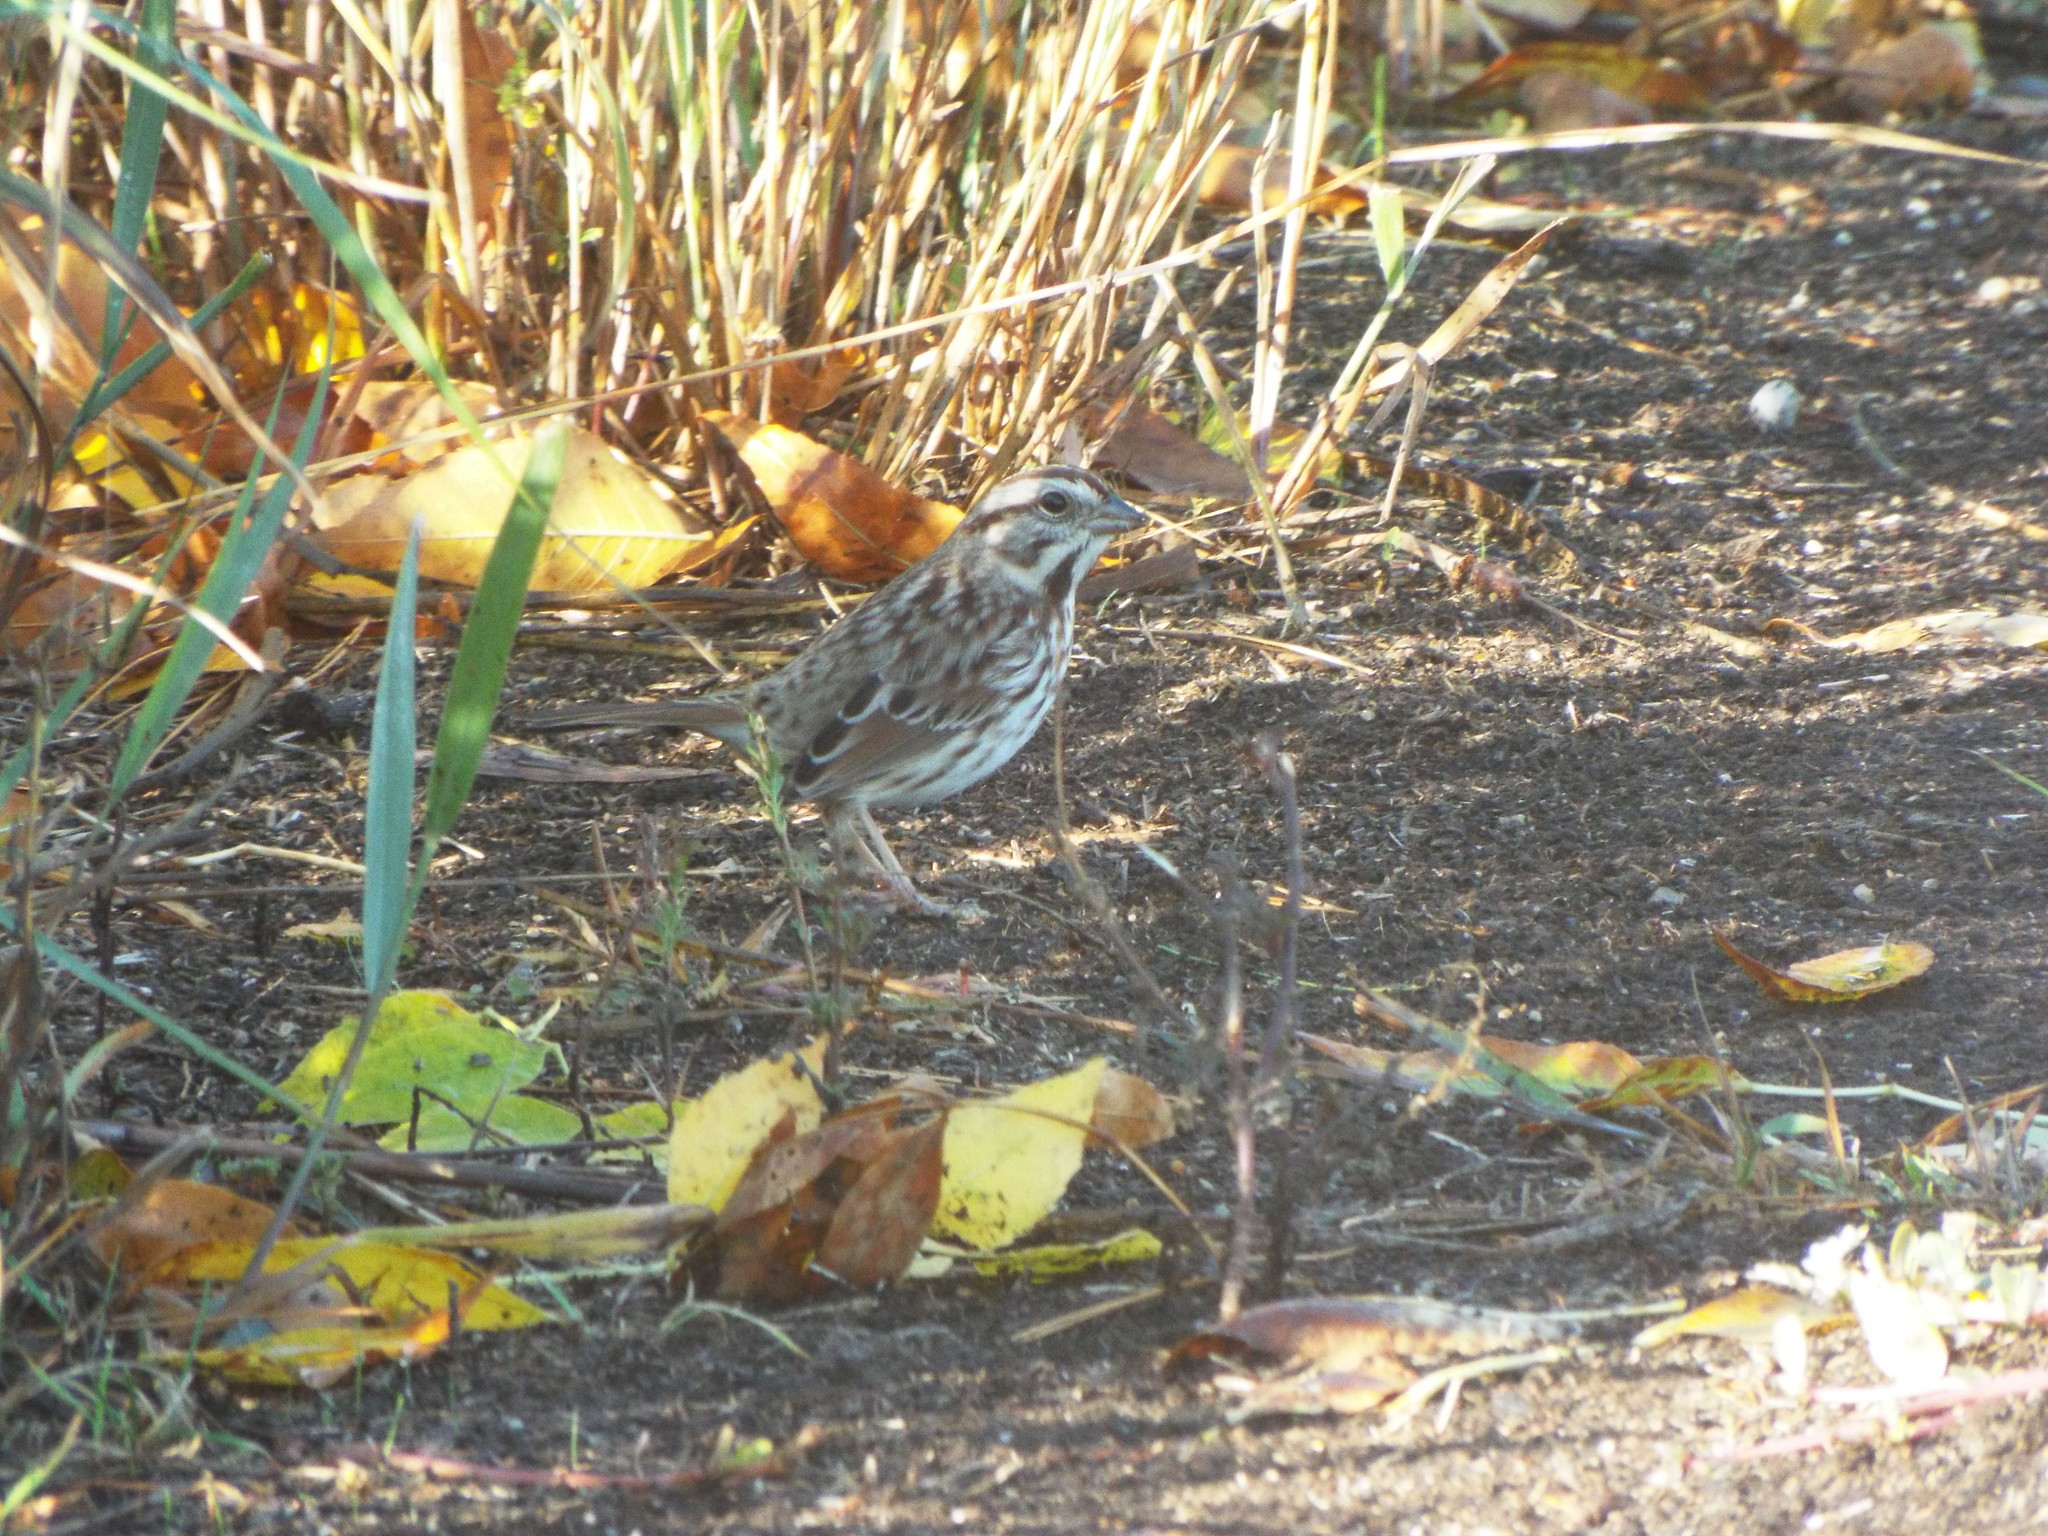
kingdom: Animalia
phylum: Chordata
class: Aves
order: Passeriformes
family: Passerellidae
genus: Melospiza
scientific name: Melospiza melodia
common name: Song sparrow
